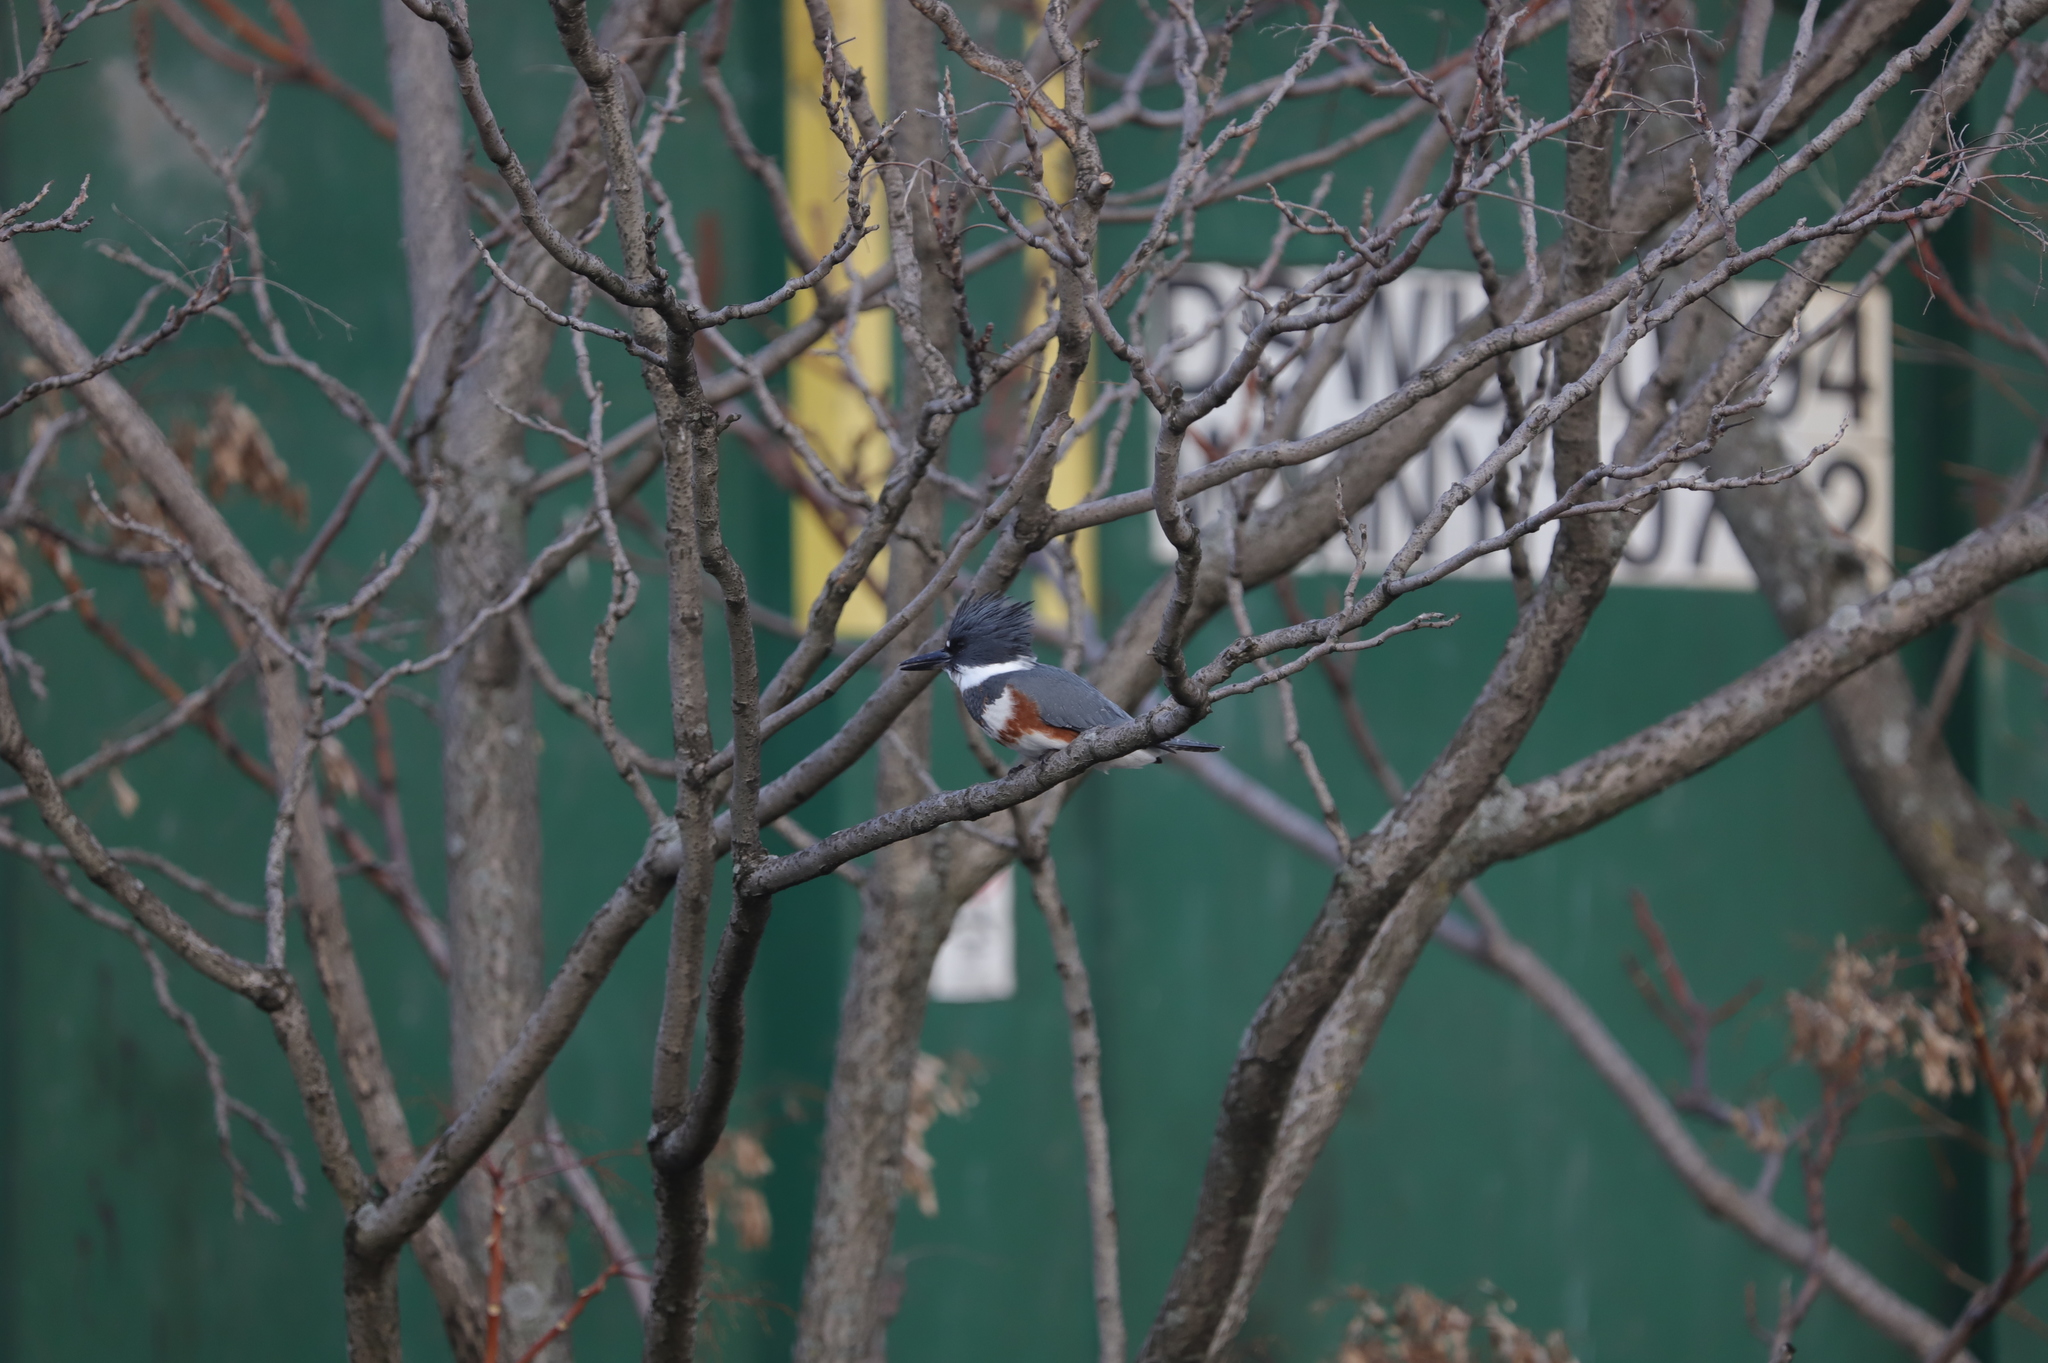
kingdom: Animalia
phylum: Chordata
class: Aves
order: Coraciiformes
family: Alcedinidae
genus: Megaceryle
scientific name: Megaceryle alcyon
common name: Belted kingfisher
